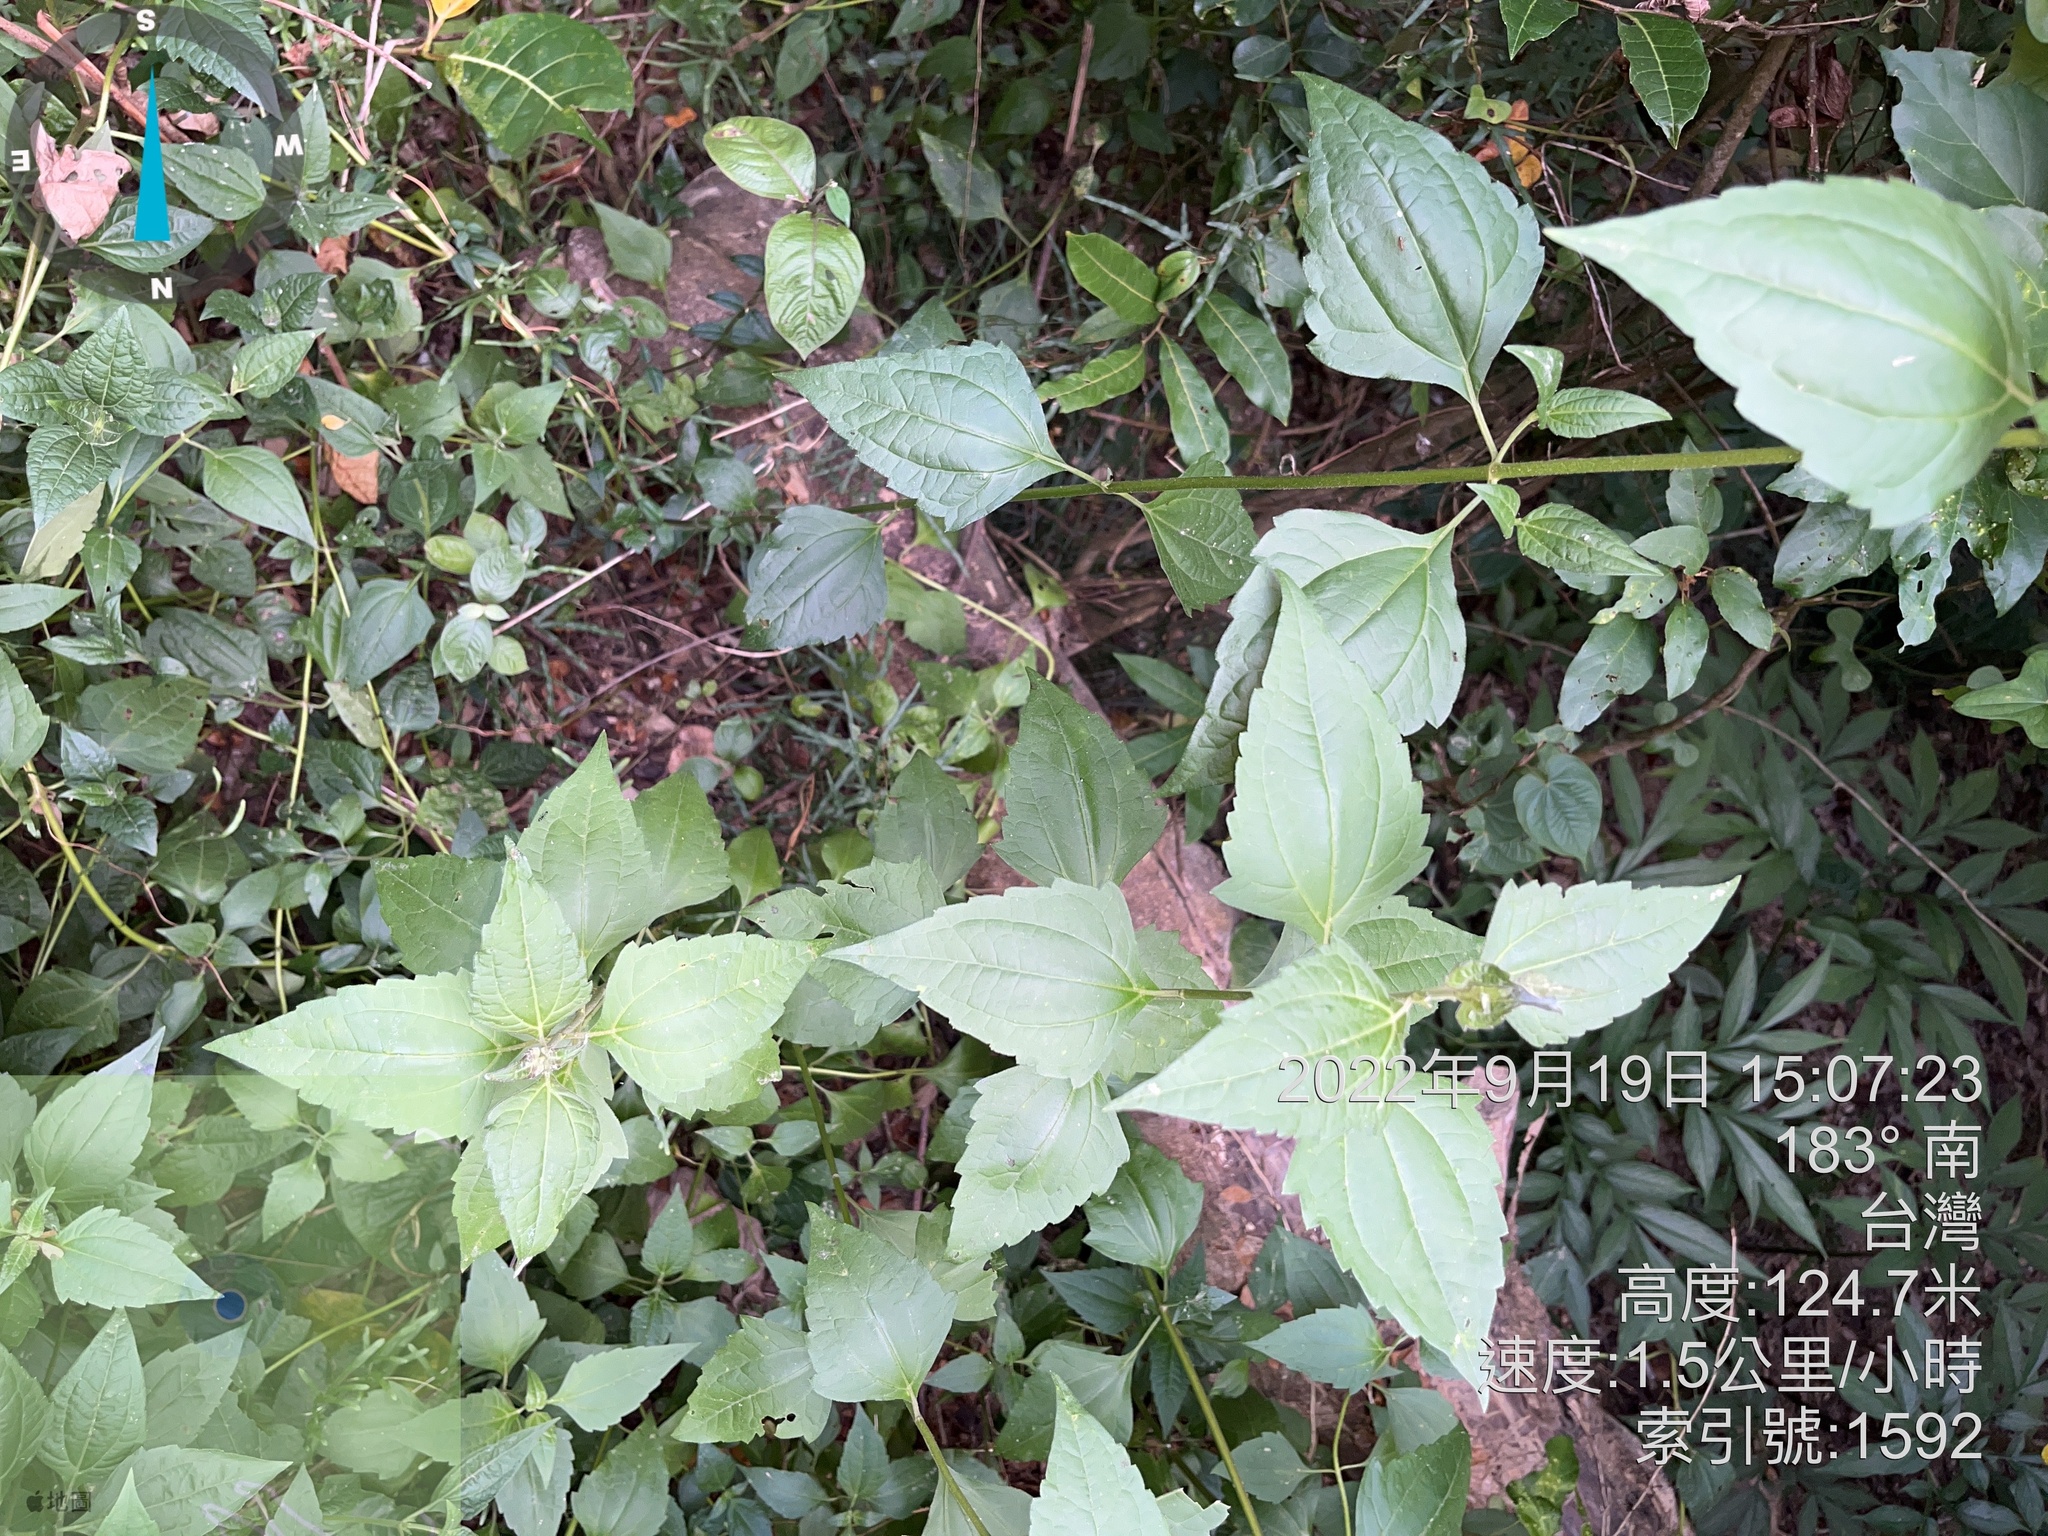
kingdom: Plantae
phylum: Tracheophyta
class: Magnoliopsida
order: Asterales
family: Asteraceae
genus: Chromolaena
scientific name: Chromolaena odorata
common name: Siamweed
